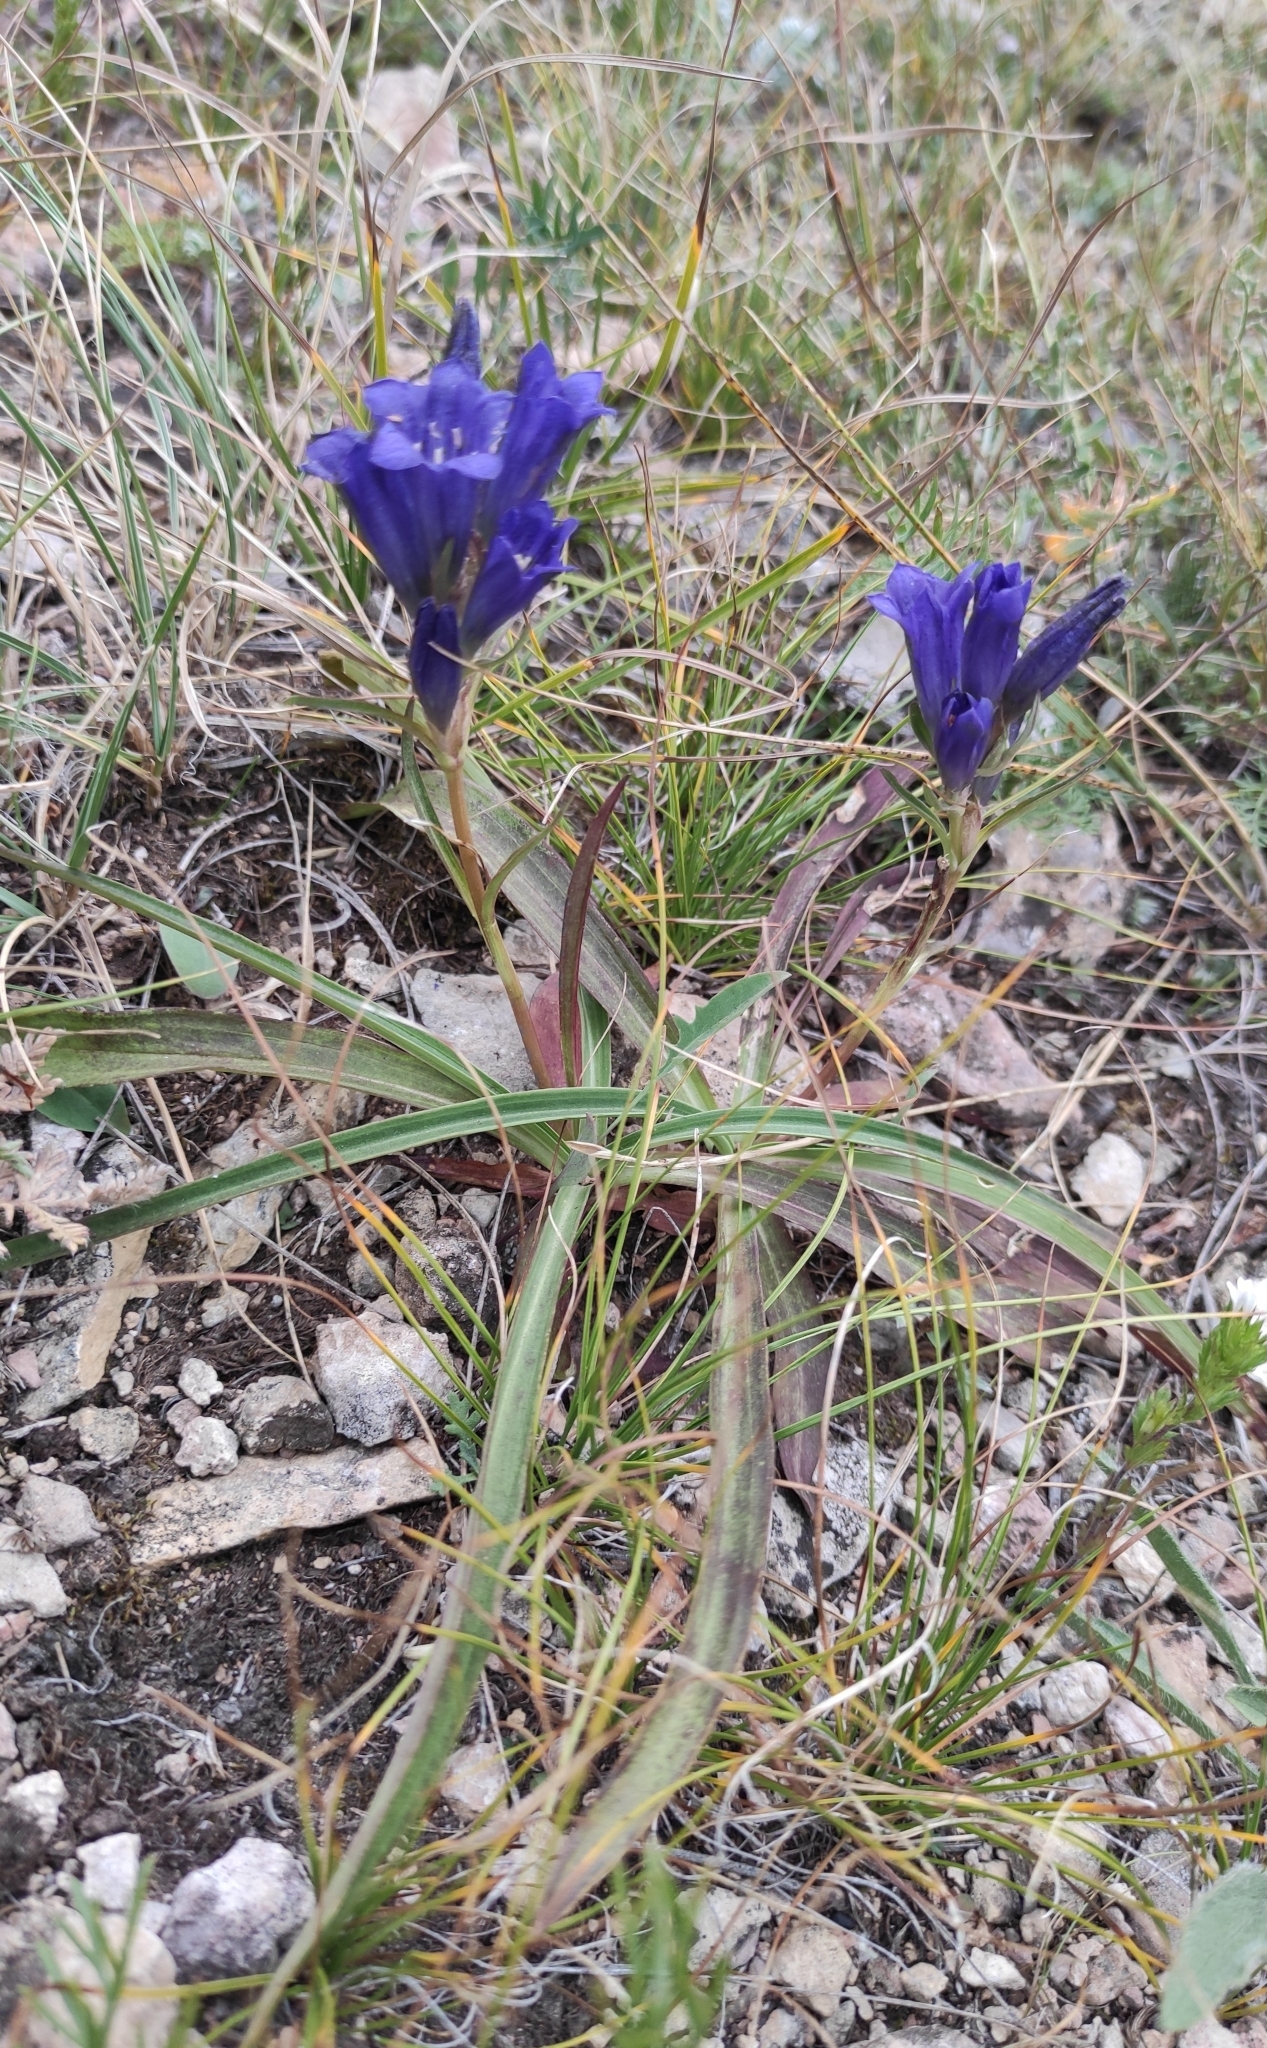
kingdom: Plantae
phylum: Tracheophyta
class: Magnoliopsida
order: Gentianales
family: Gentianaceae
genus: Gentiana
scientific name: Gentiana decumbens
